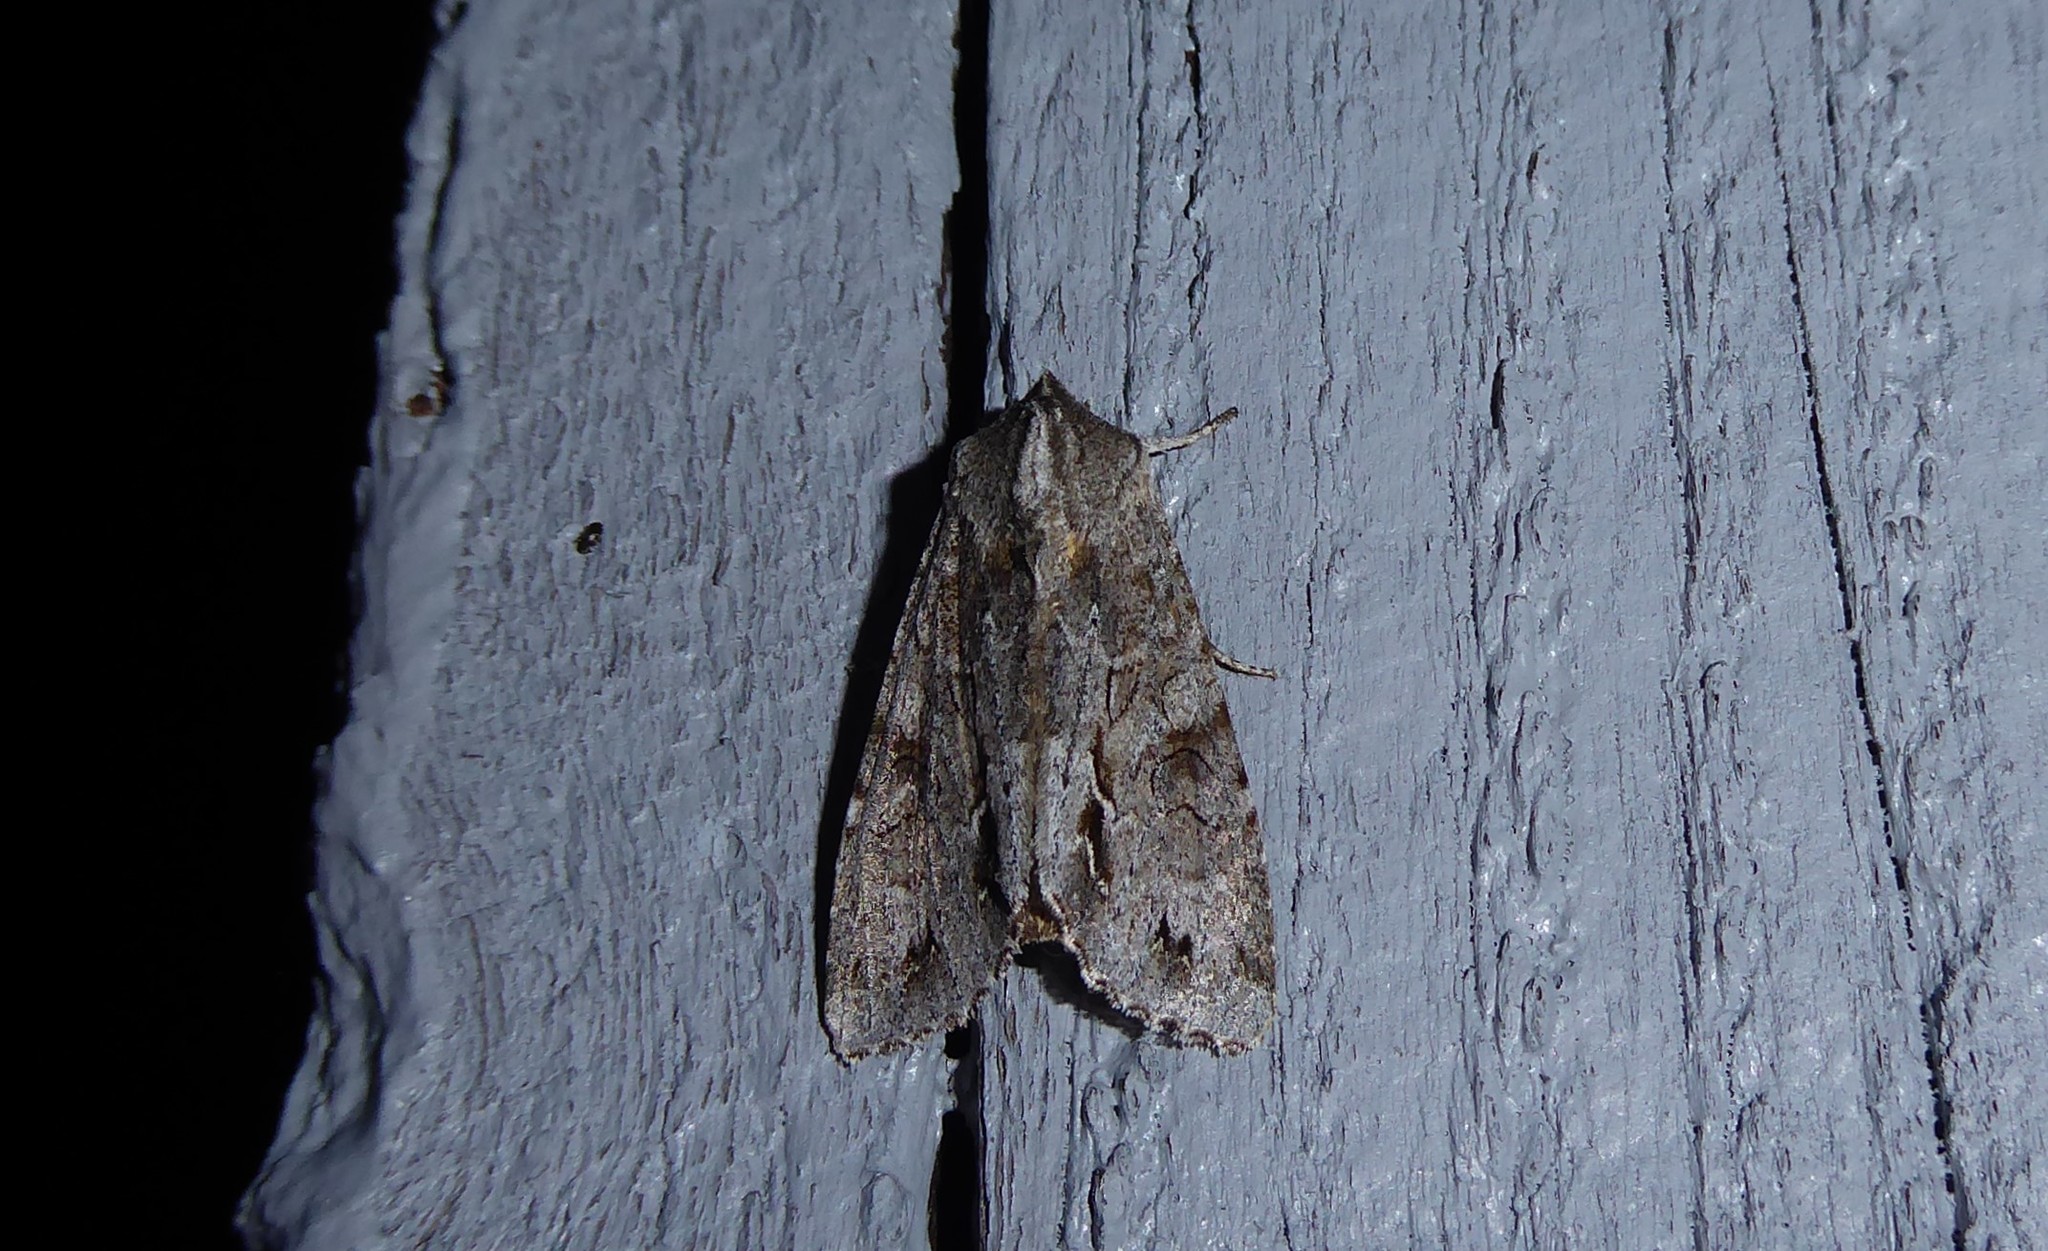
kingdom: Animalia
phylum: Arthropoda
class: Insecta
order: Lepidoptera
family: Noctuidae
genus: Ichneutica
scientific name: Ichneutica
